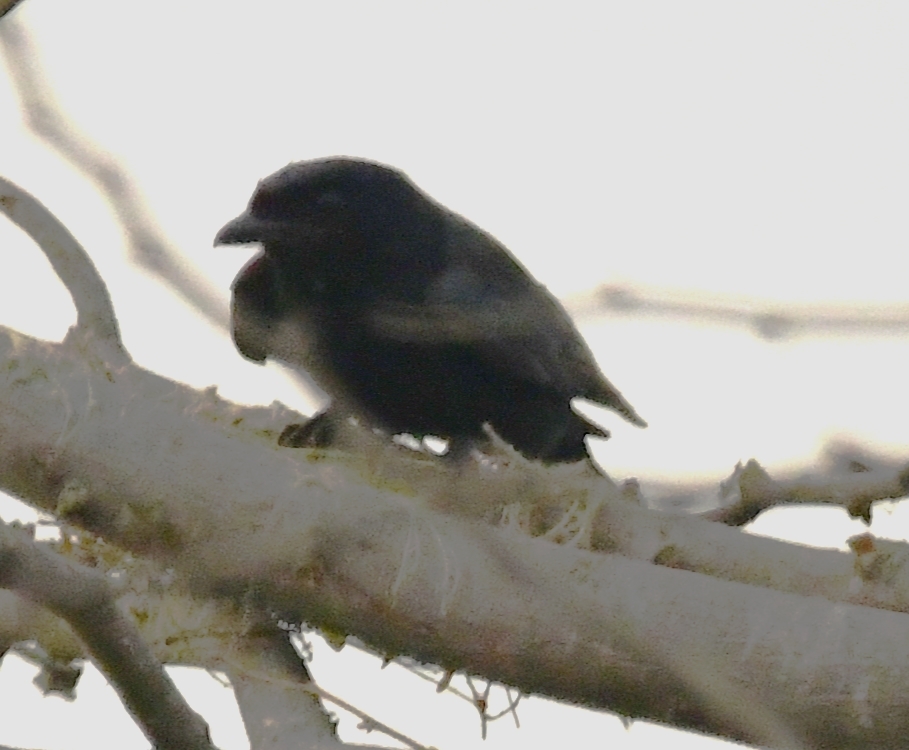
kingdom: Animalia
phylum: Chordata
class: Aves
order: Passeriformes
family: Dicruridae
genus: Dicrurus
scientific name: Dicrurus macrocercus
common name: Black drongo
